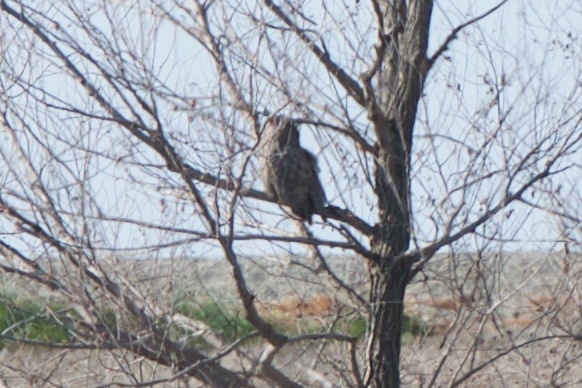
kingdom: Animalia
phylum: Chordata
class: Aves
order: Strigiformes
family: Strigidae
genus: Bubo
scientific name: Bubo virginianus
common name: Great horned owl
